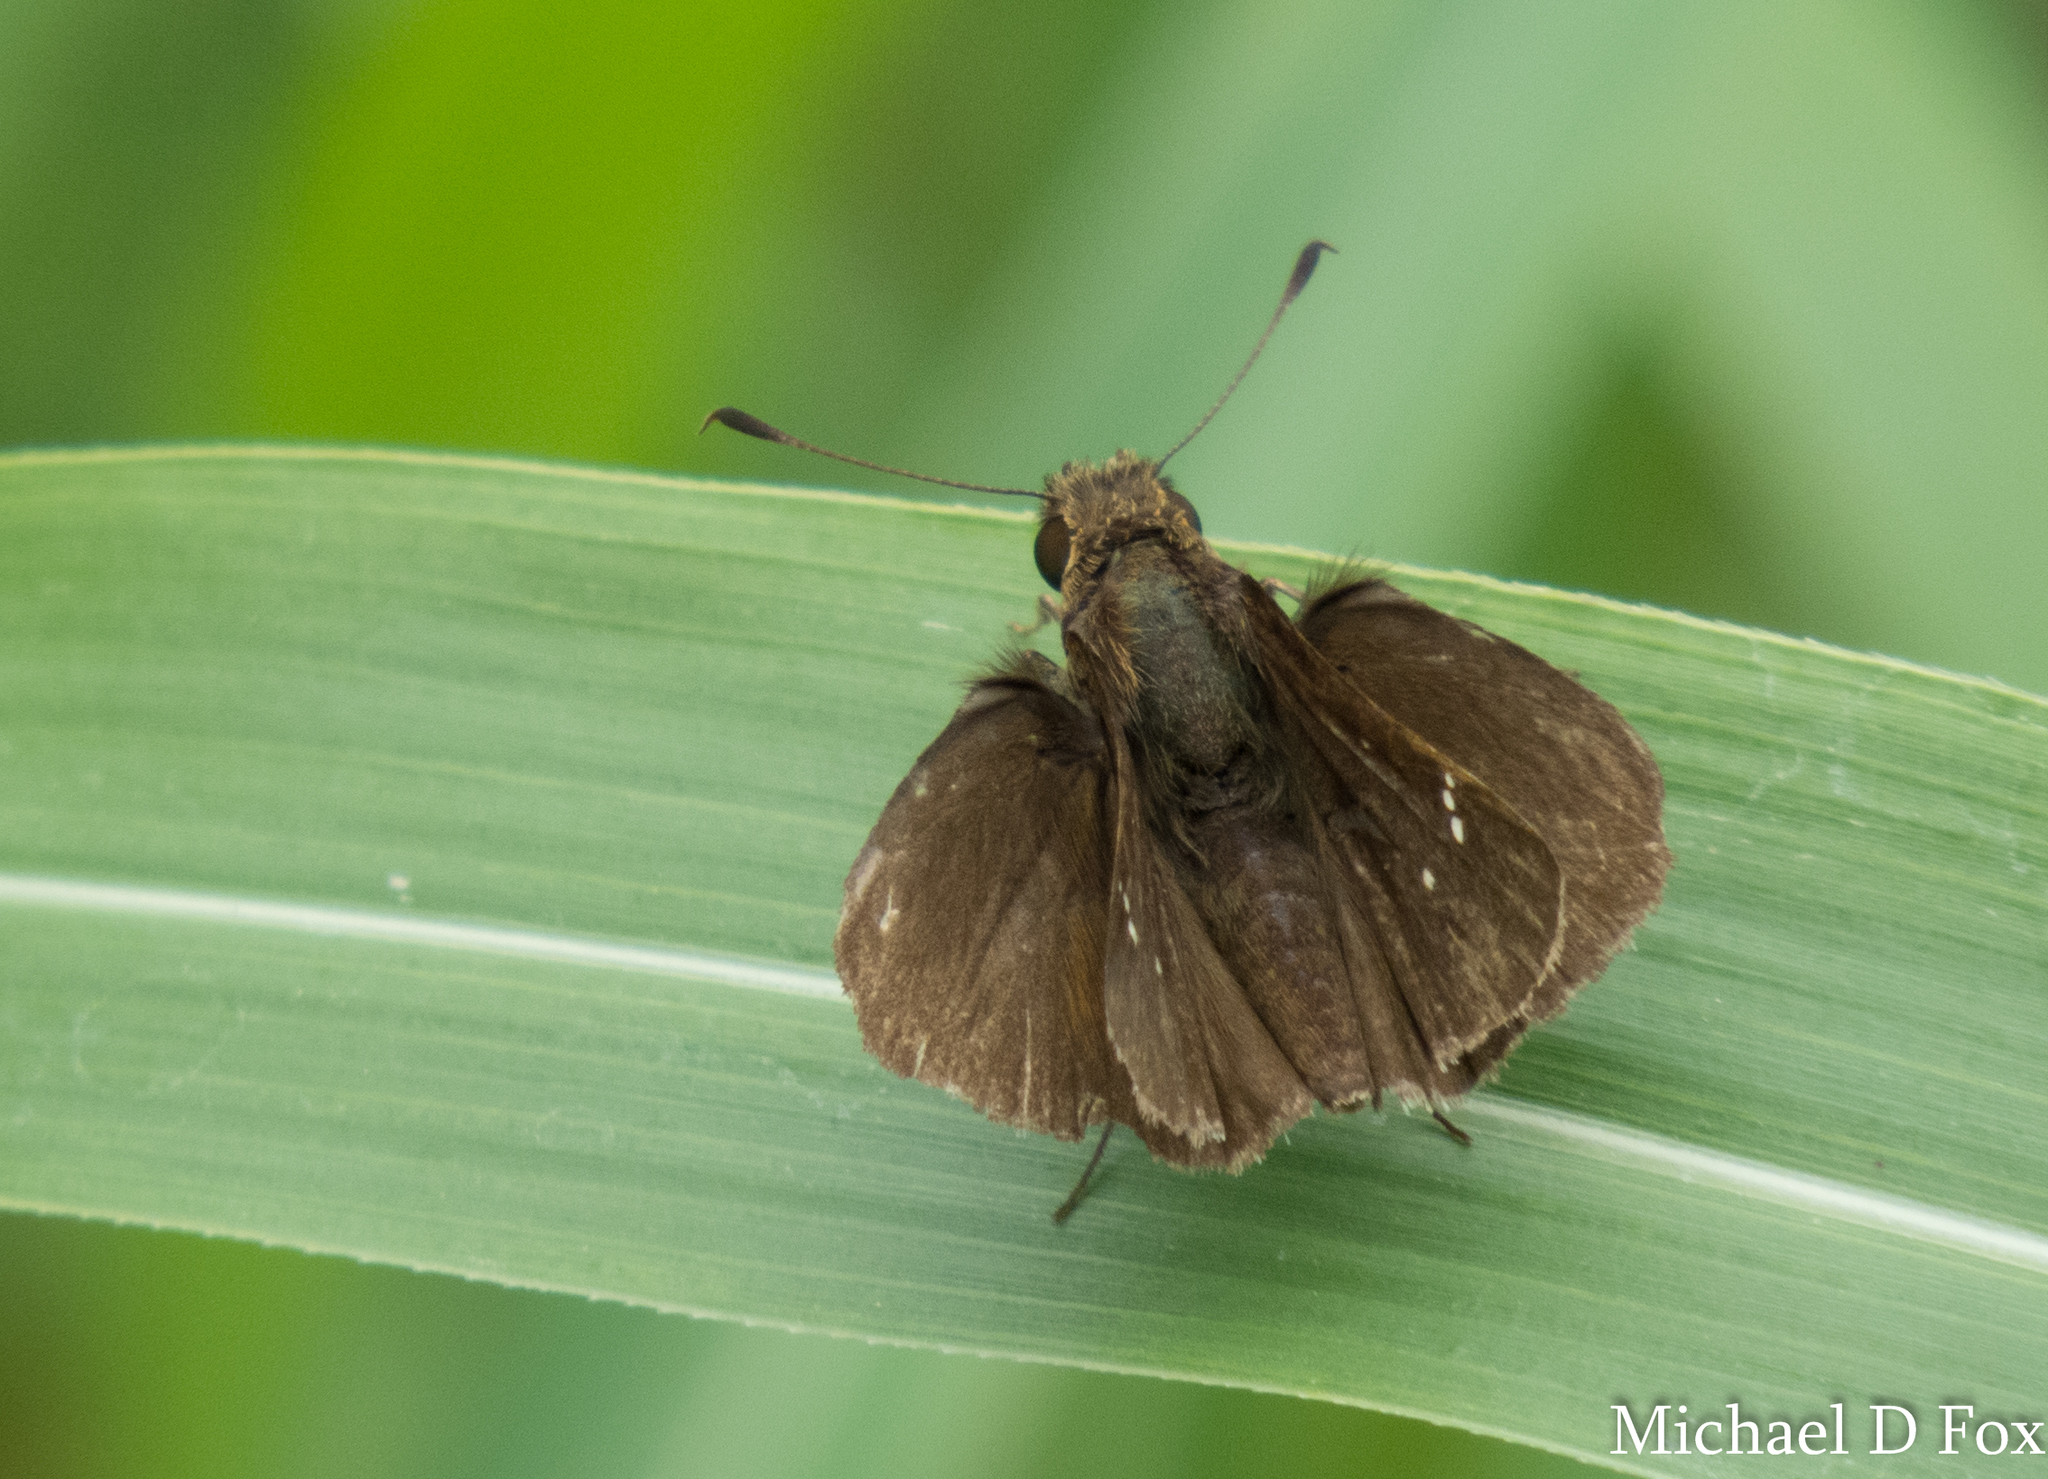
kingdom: Animalia
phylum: Arthropoda
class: Insecta
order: Lepidoptera
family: Hesperiidae
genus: Lerema
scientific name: Lerema accius
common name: Clouded skipper
